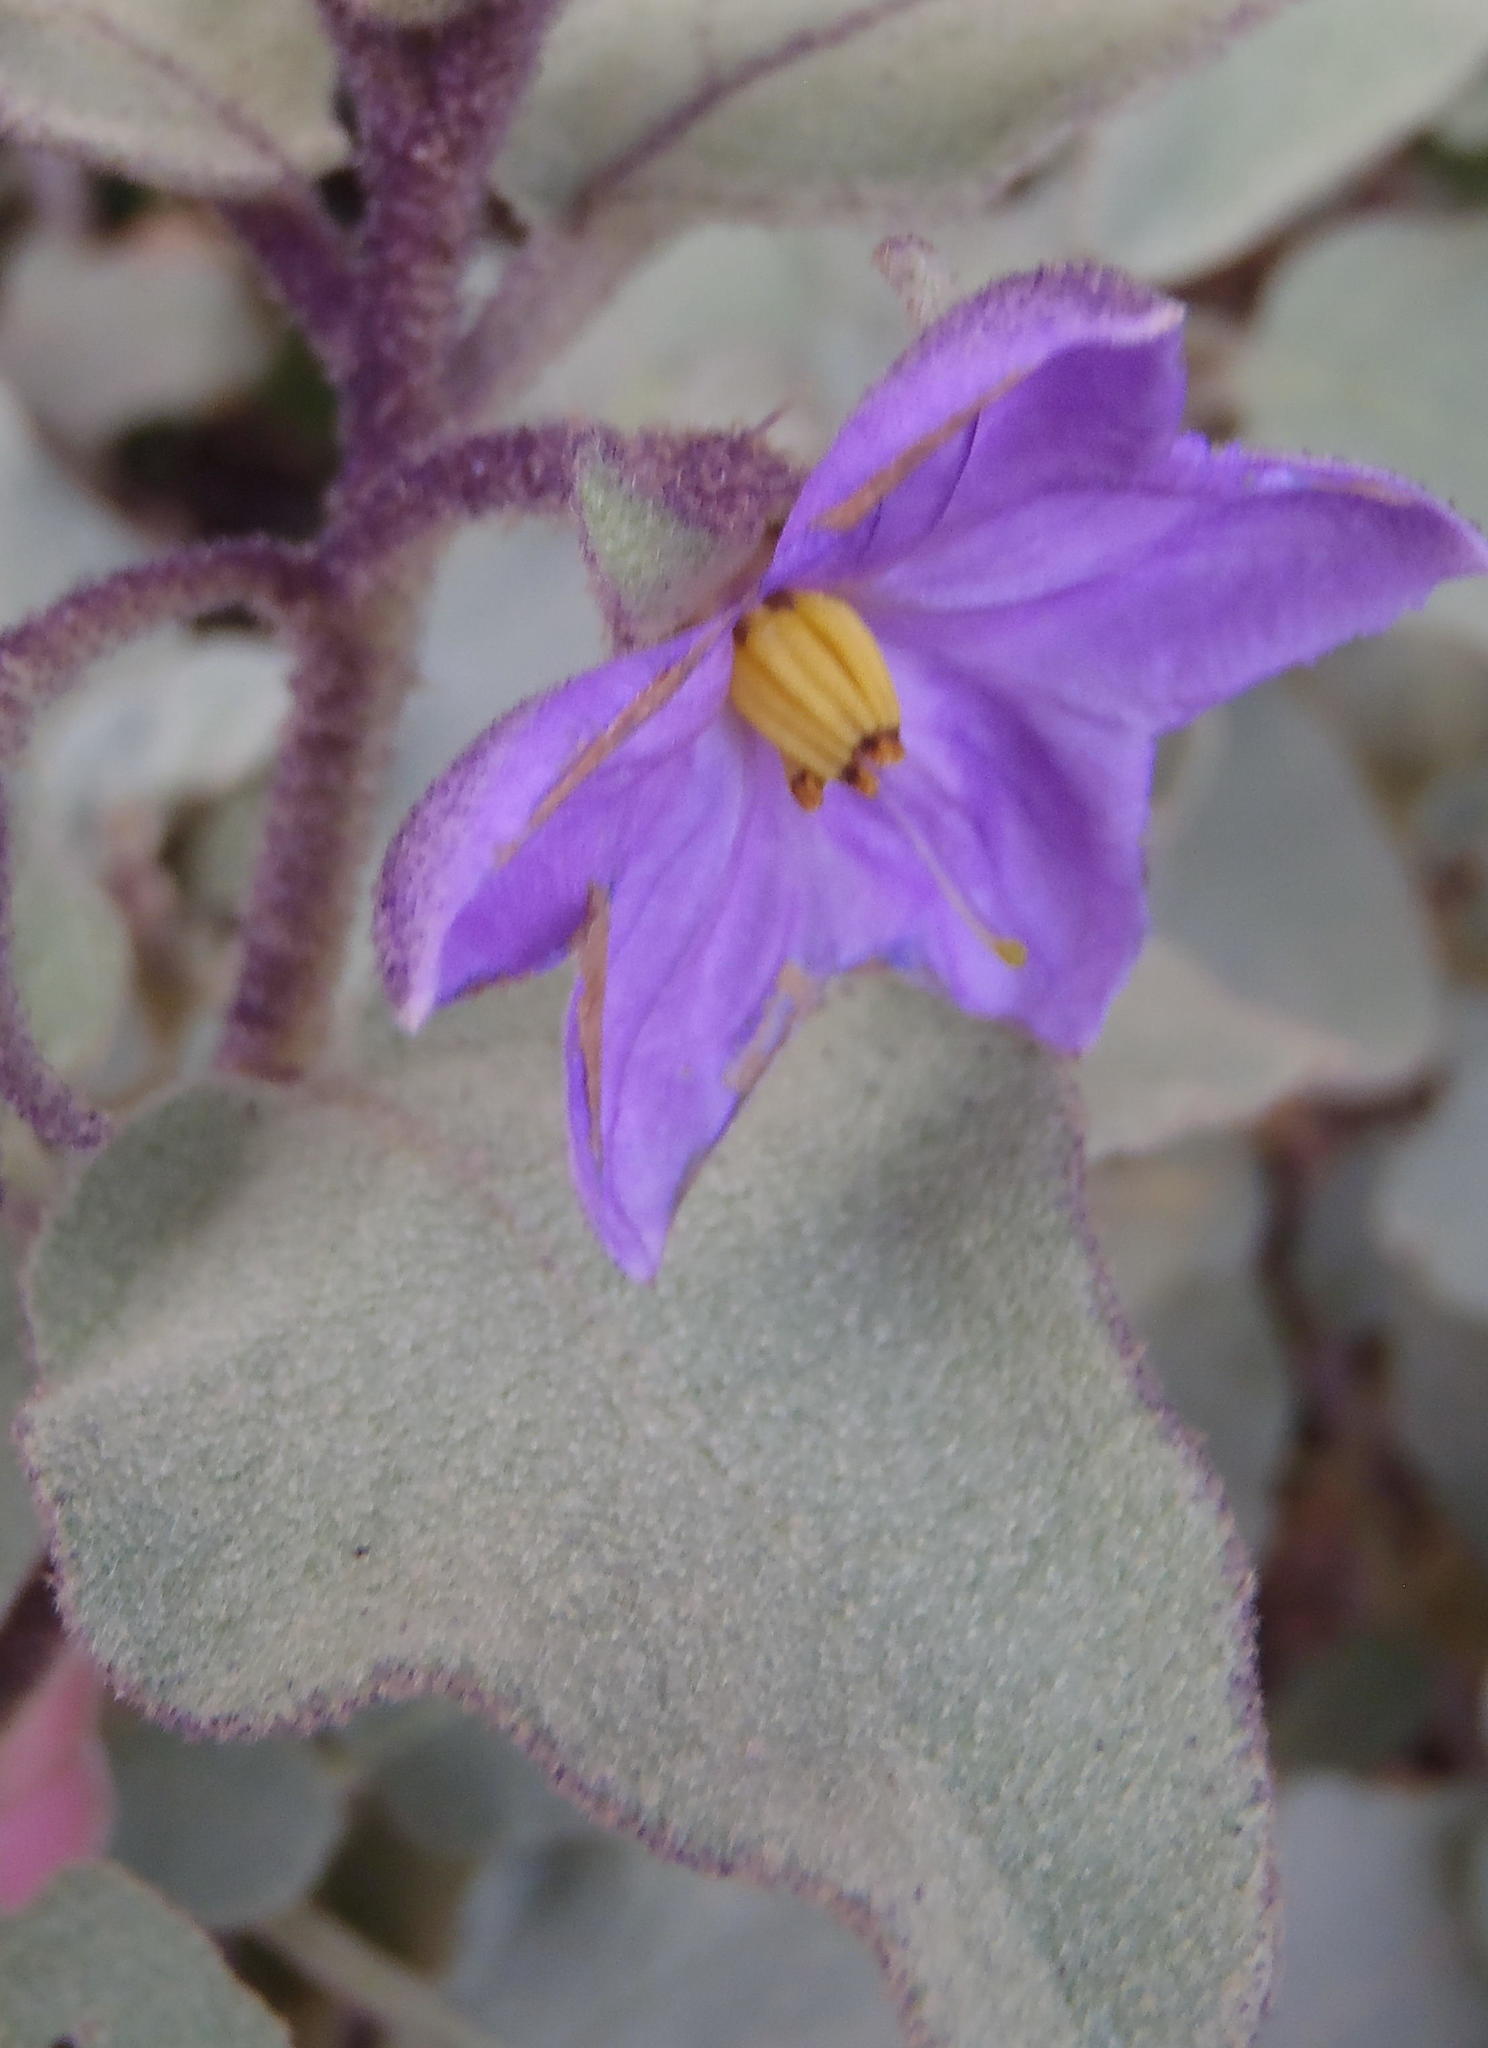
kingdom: Plantae
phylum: Tracheophyta
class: Magnoliopsida
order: Solanales
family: Solanaceae
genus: Solanum
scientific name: Solanum tomentosum
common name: Wild aubergine
